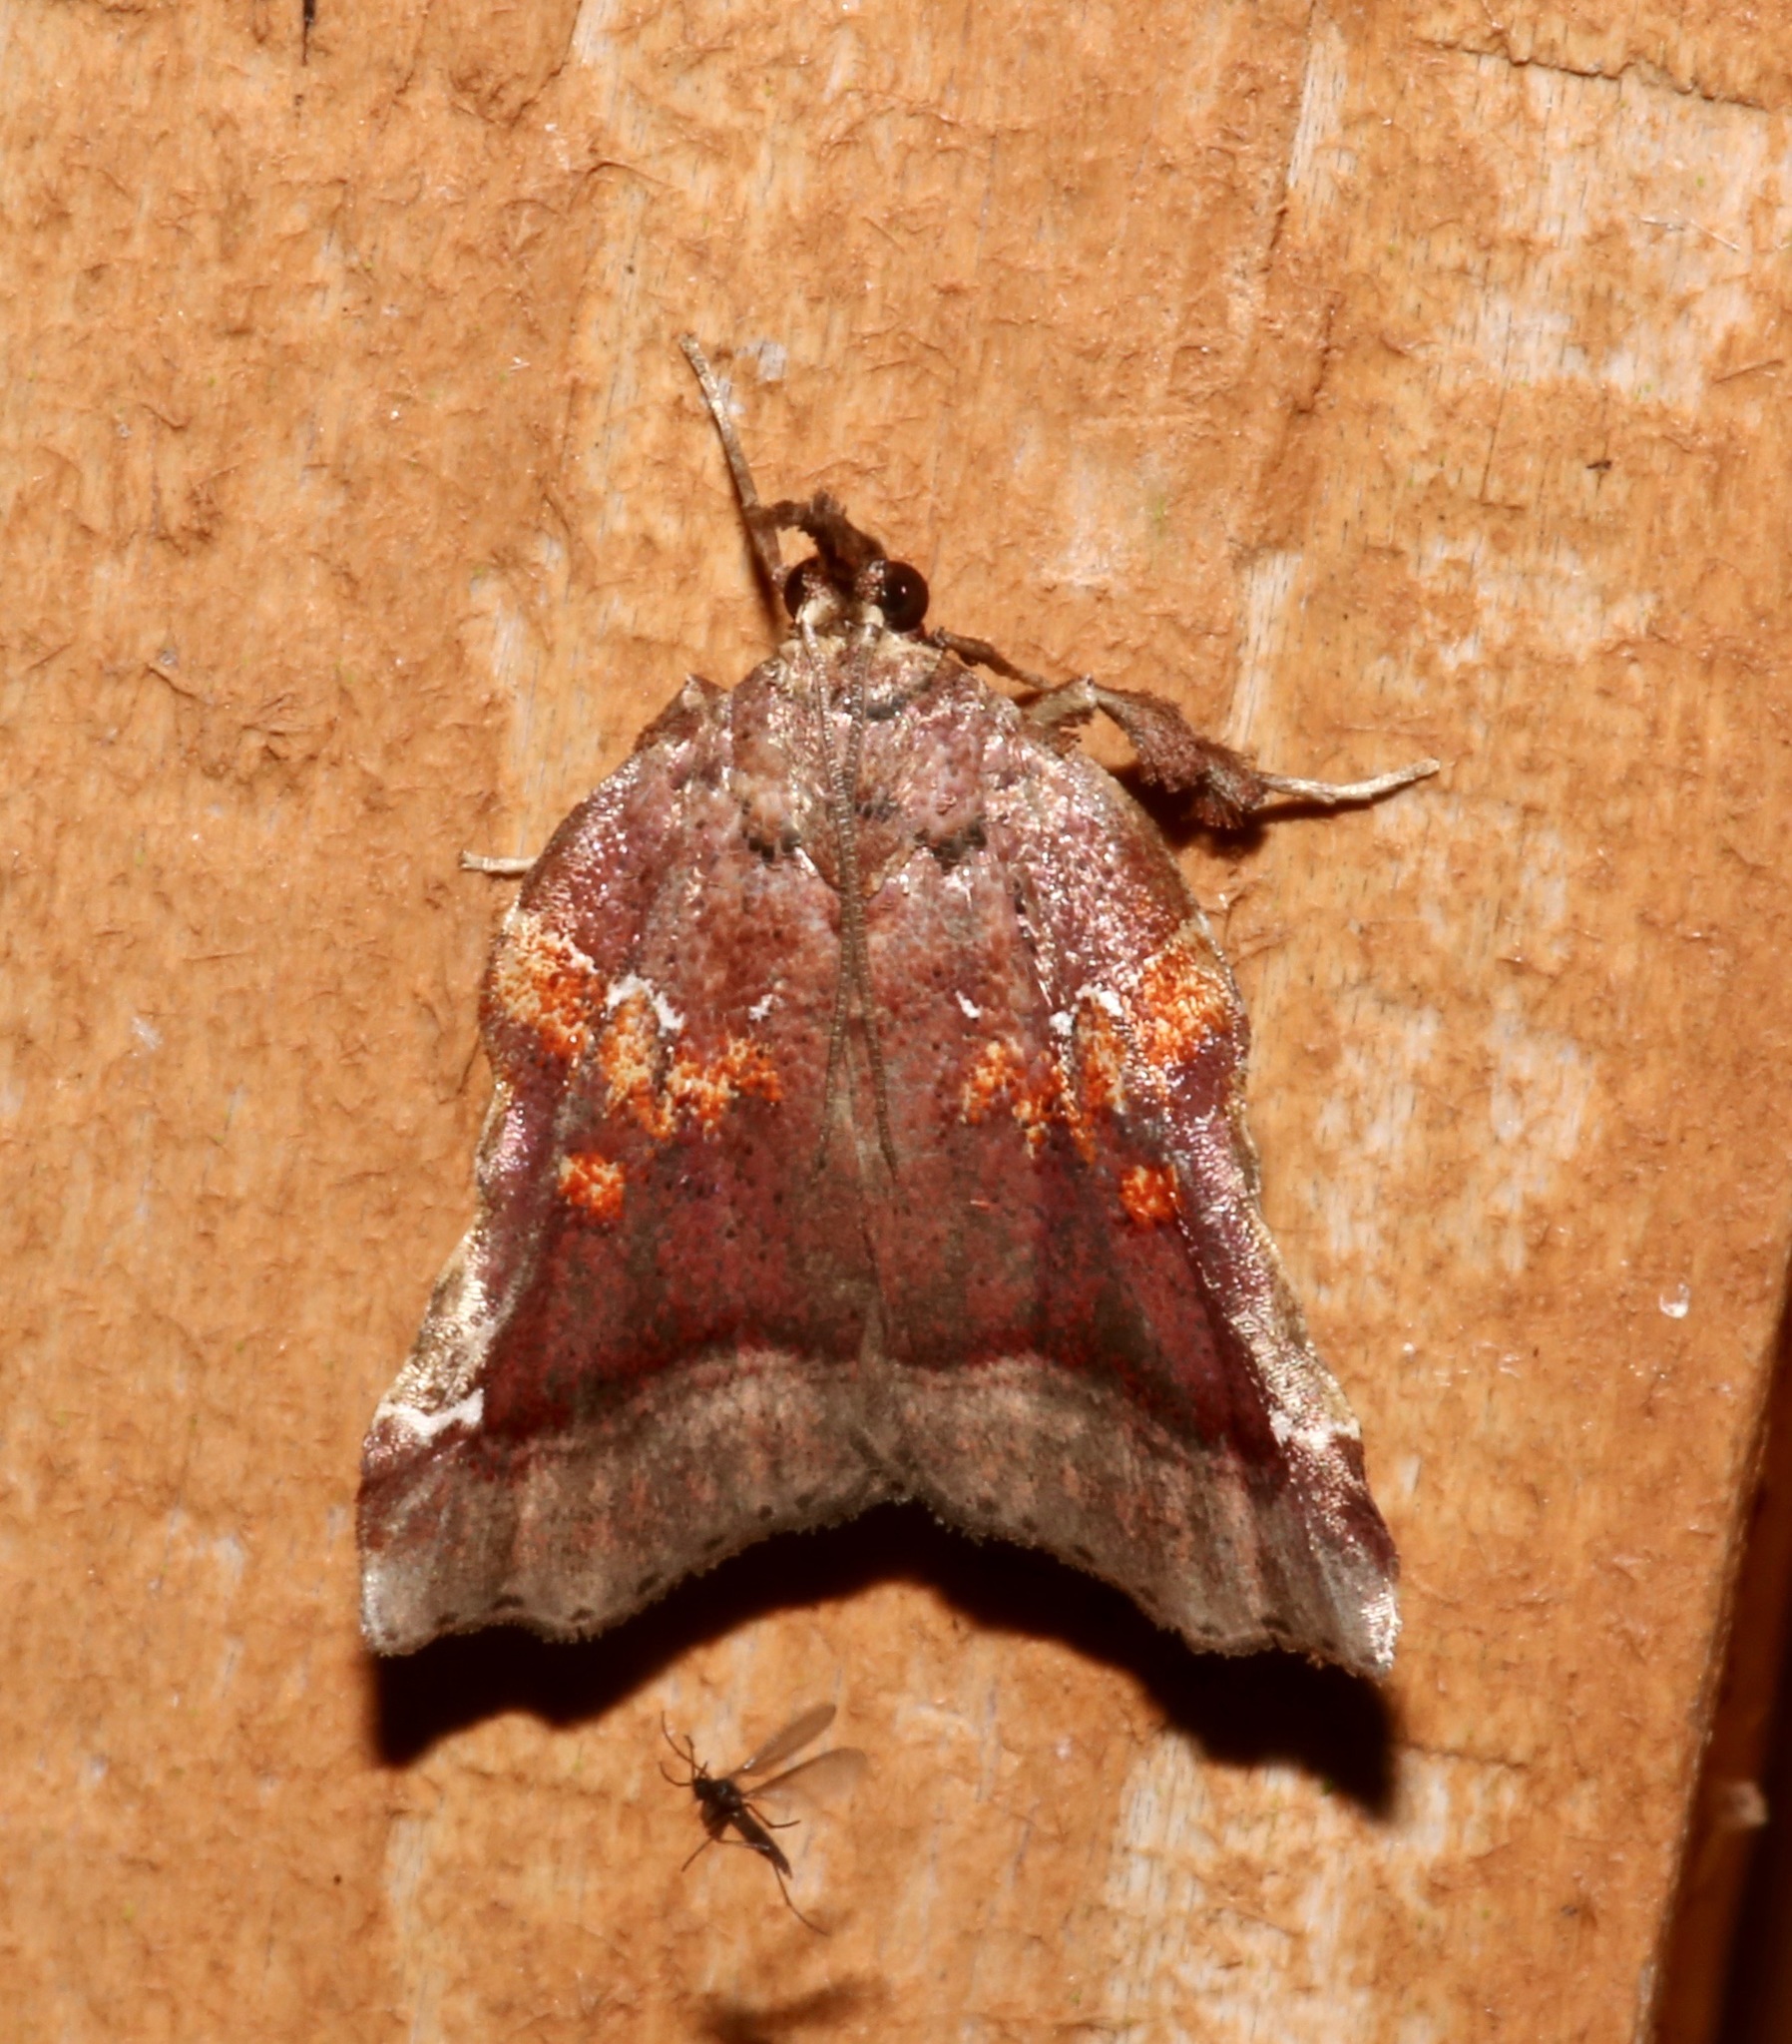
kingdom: Animalia
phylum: Arthropoda
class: Insecta
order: Lepidoptera
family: Pyralidae
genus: Clydonopteron
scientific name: Clydonopteron sacculana
